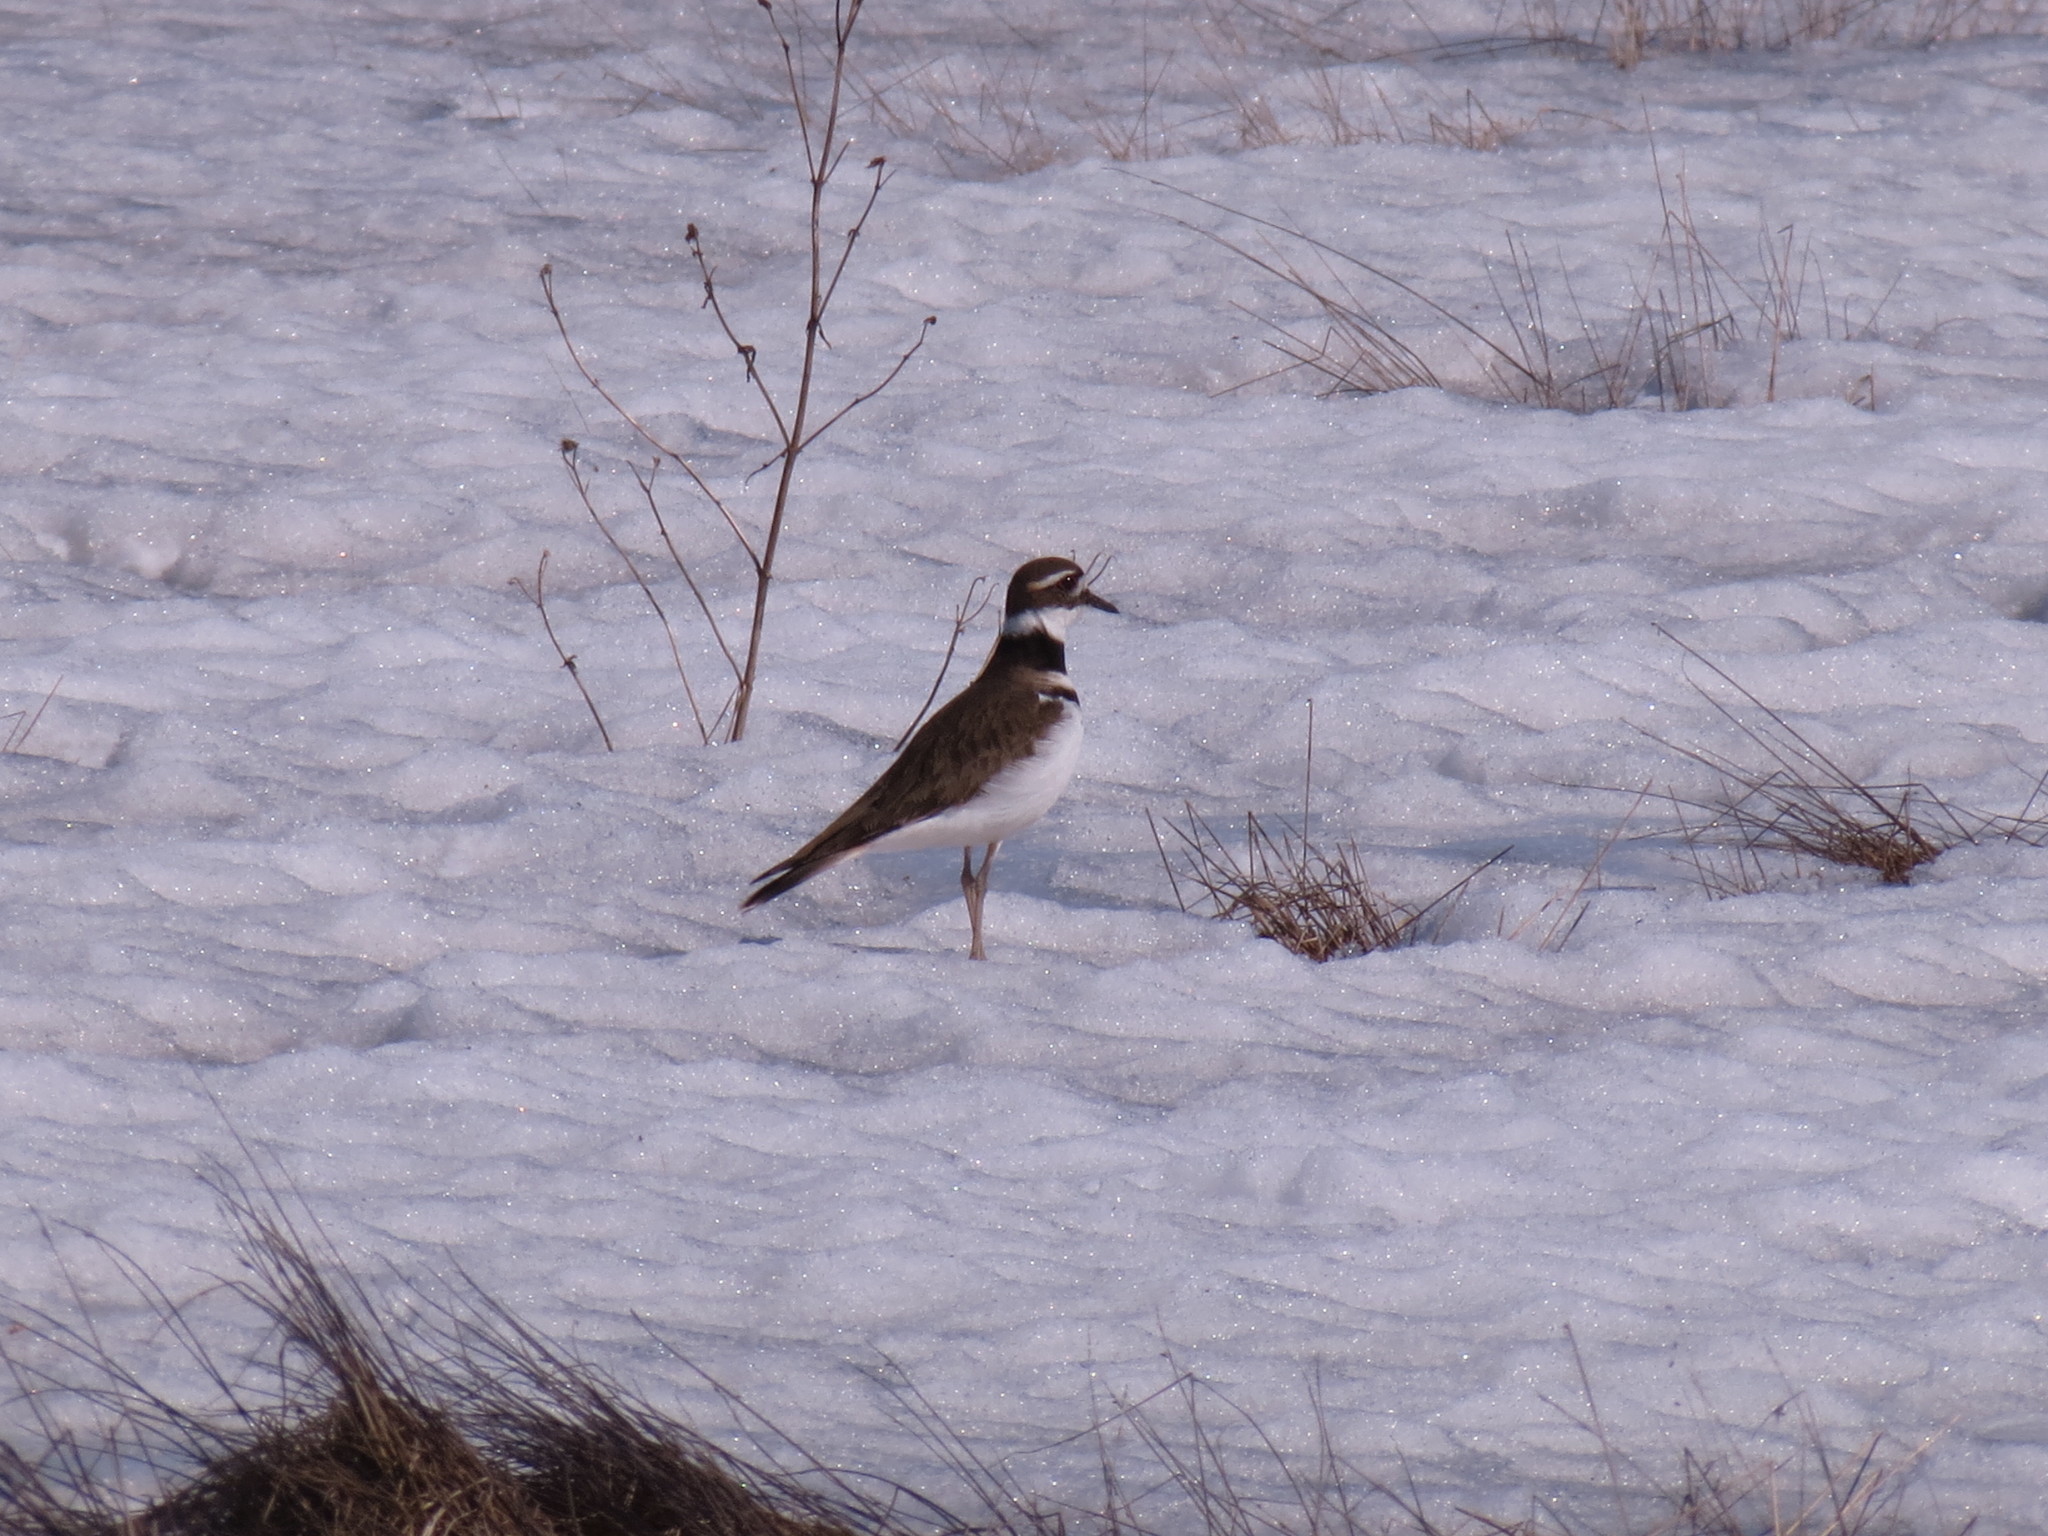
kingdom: Animalia
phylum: Chordata
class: Aves
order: Charadriiformes
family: Charadriidae
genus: Charadrius
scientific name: Charadrius vociferus
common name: Killdeer
